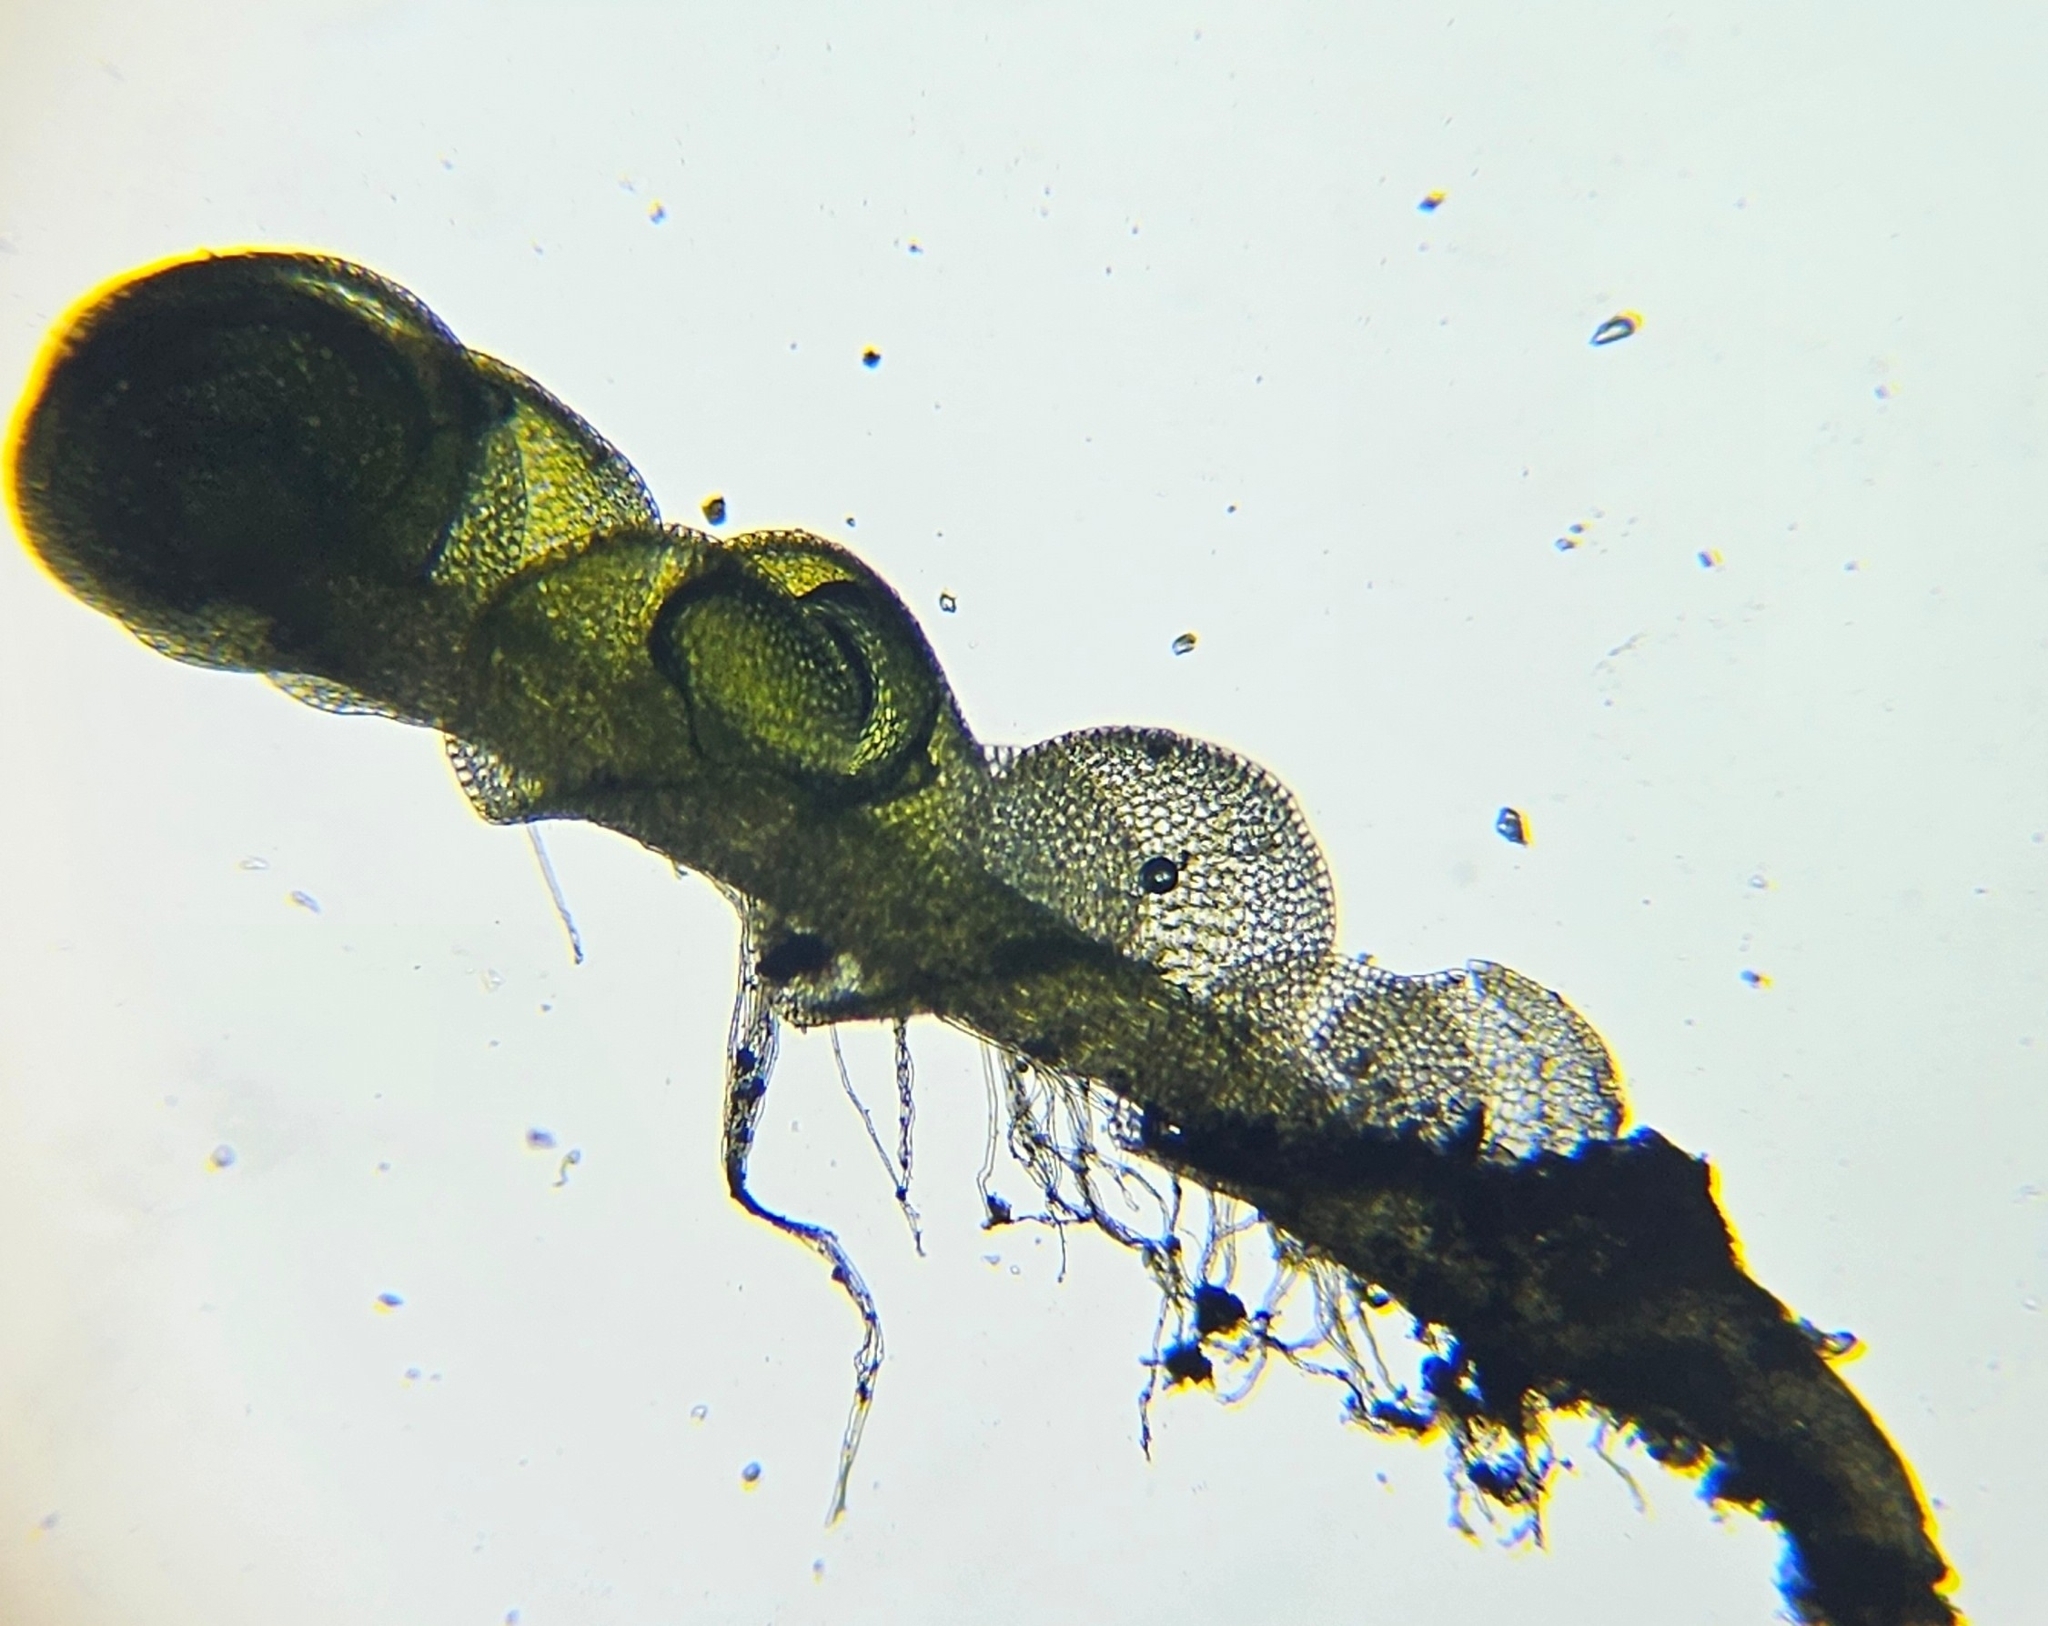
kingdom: Plantae
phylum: Marchantiophyta
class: Jungermanniopsida
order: Jungermanniales
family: Gymnomitriaceae
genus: Nardia
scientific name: Nardia scalaris
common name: Ladder flapwort
